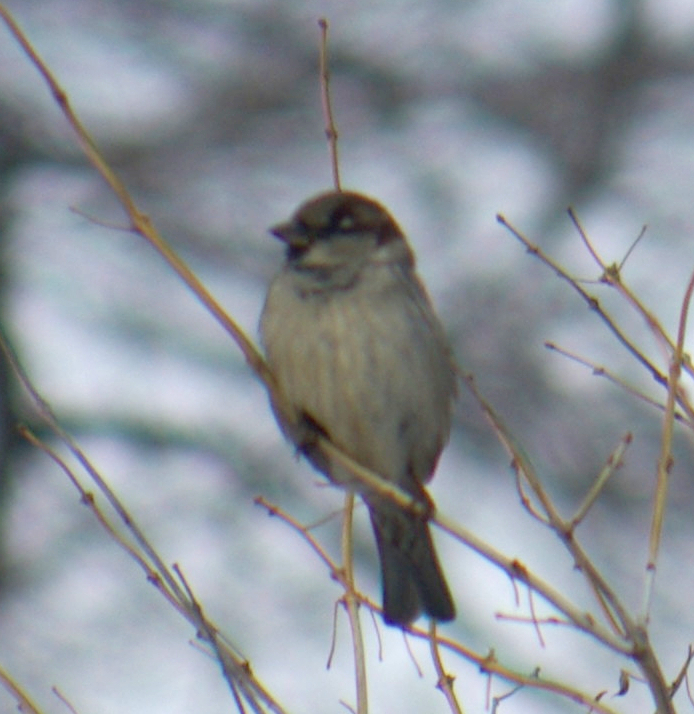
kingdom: Animalia
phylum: Chordata
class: Aves
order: Passeriformes
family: Passeridae
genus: Passer
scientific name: Passer domesticus
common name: House sparrow
